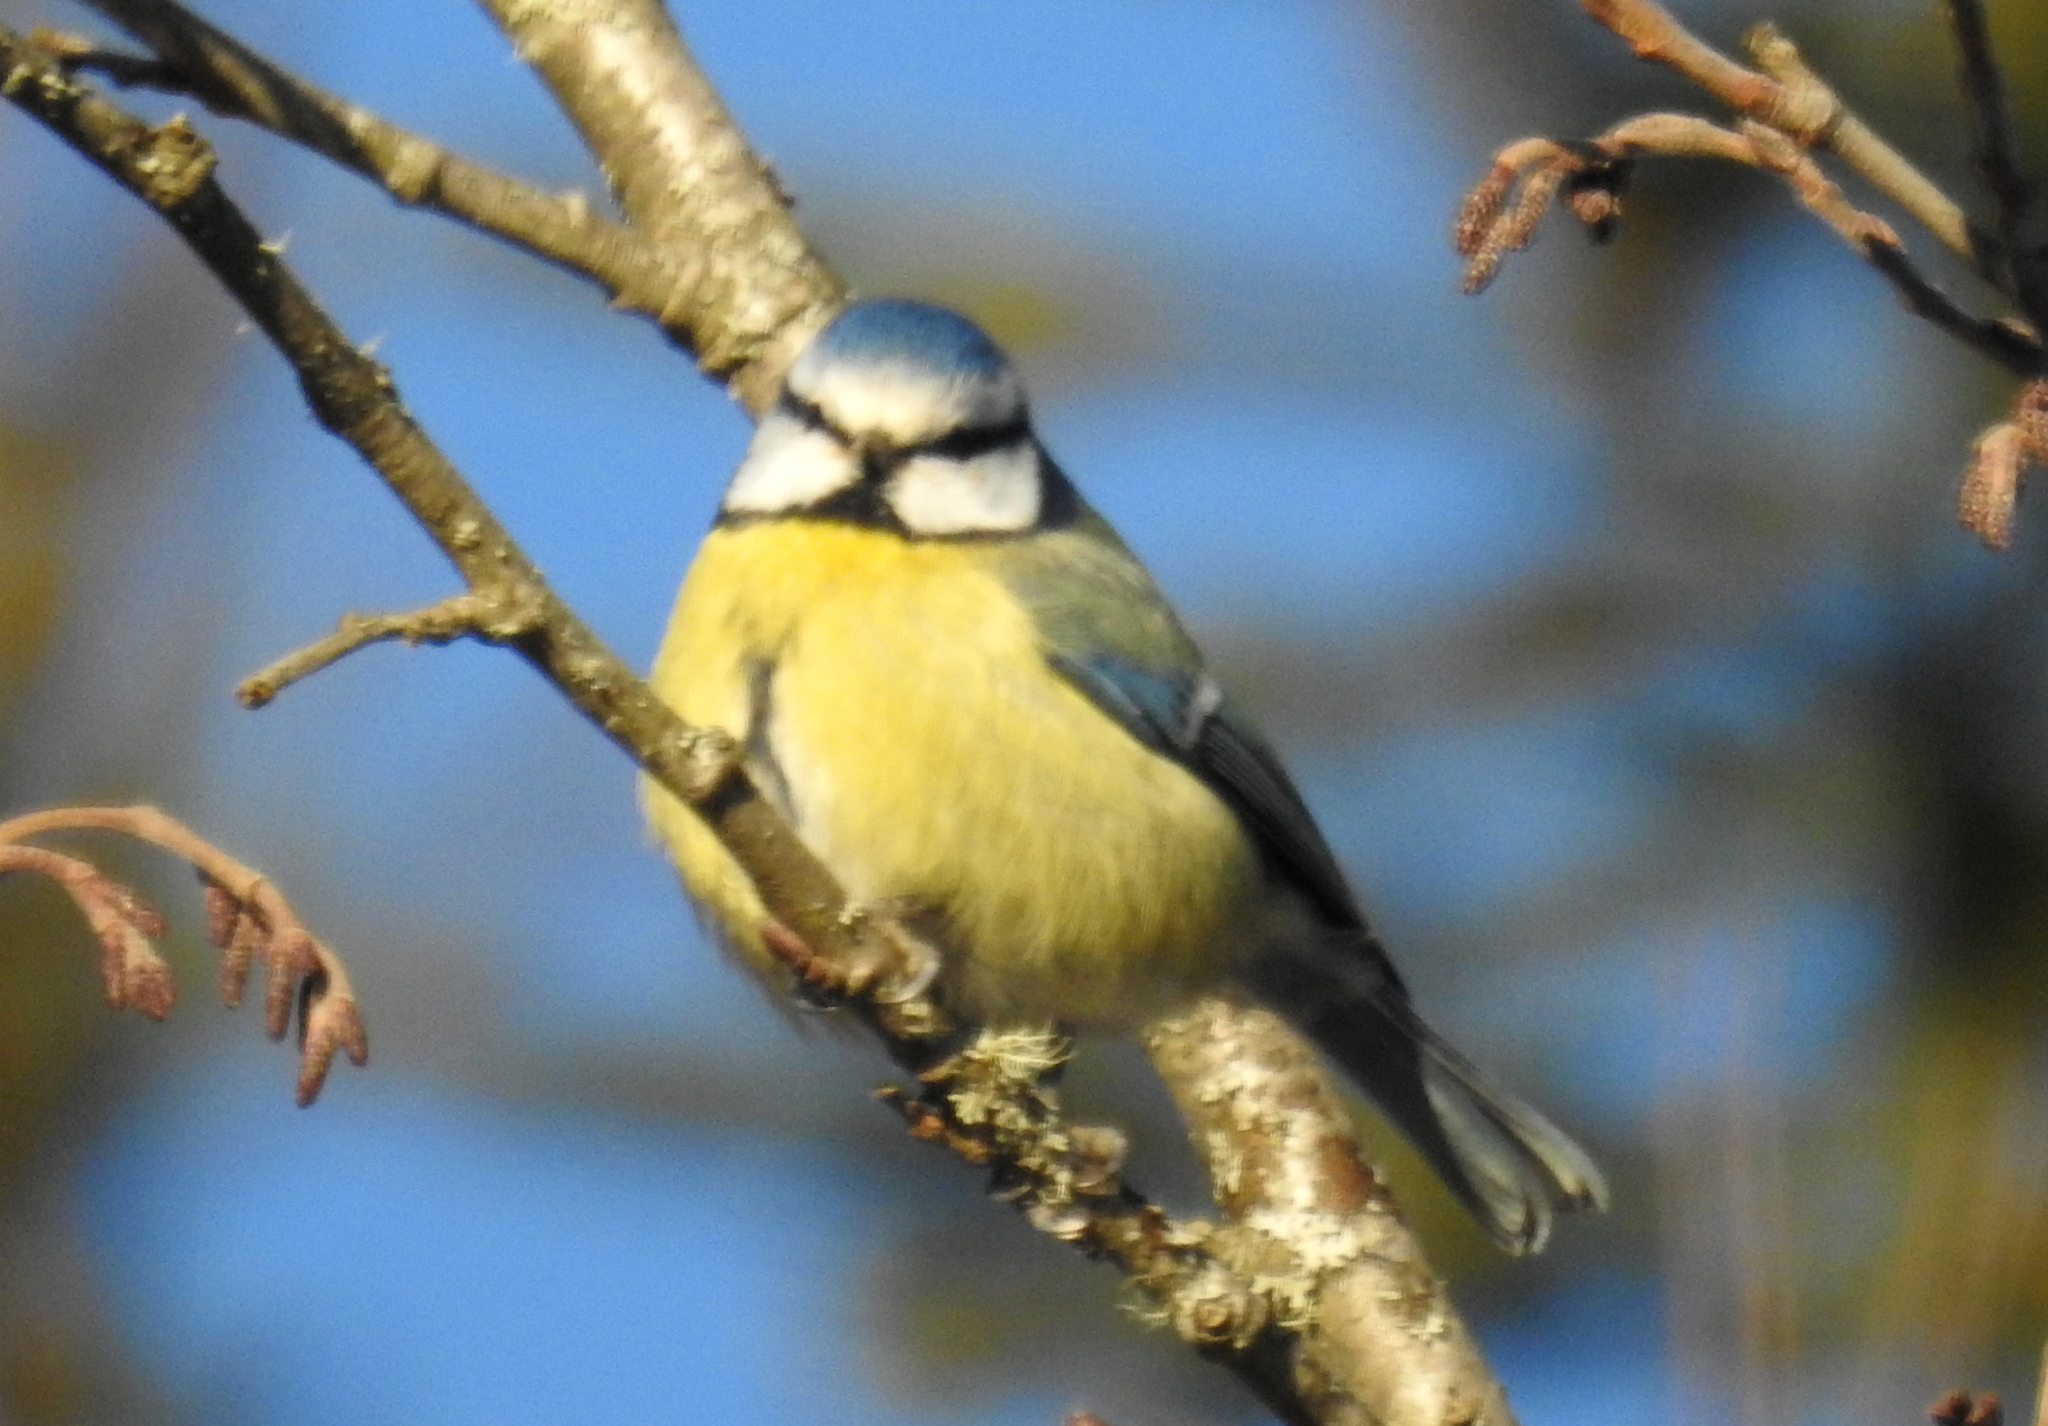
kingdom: Animalia
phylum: Chordata
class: Aves
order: Passeriformes
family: Paridae
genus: Cyanistes
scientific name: Cyanistes caeruleus
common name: Eurasian blue tit
